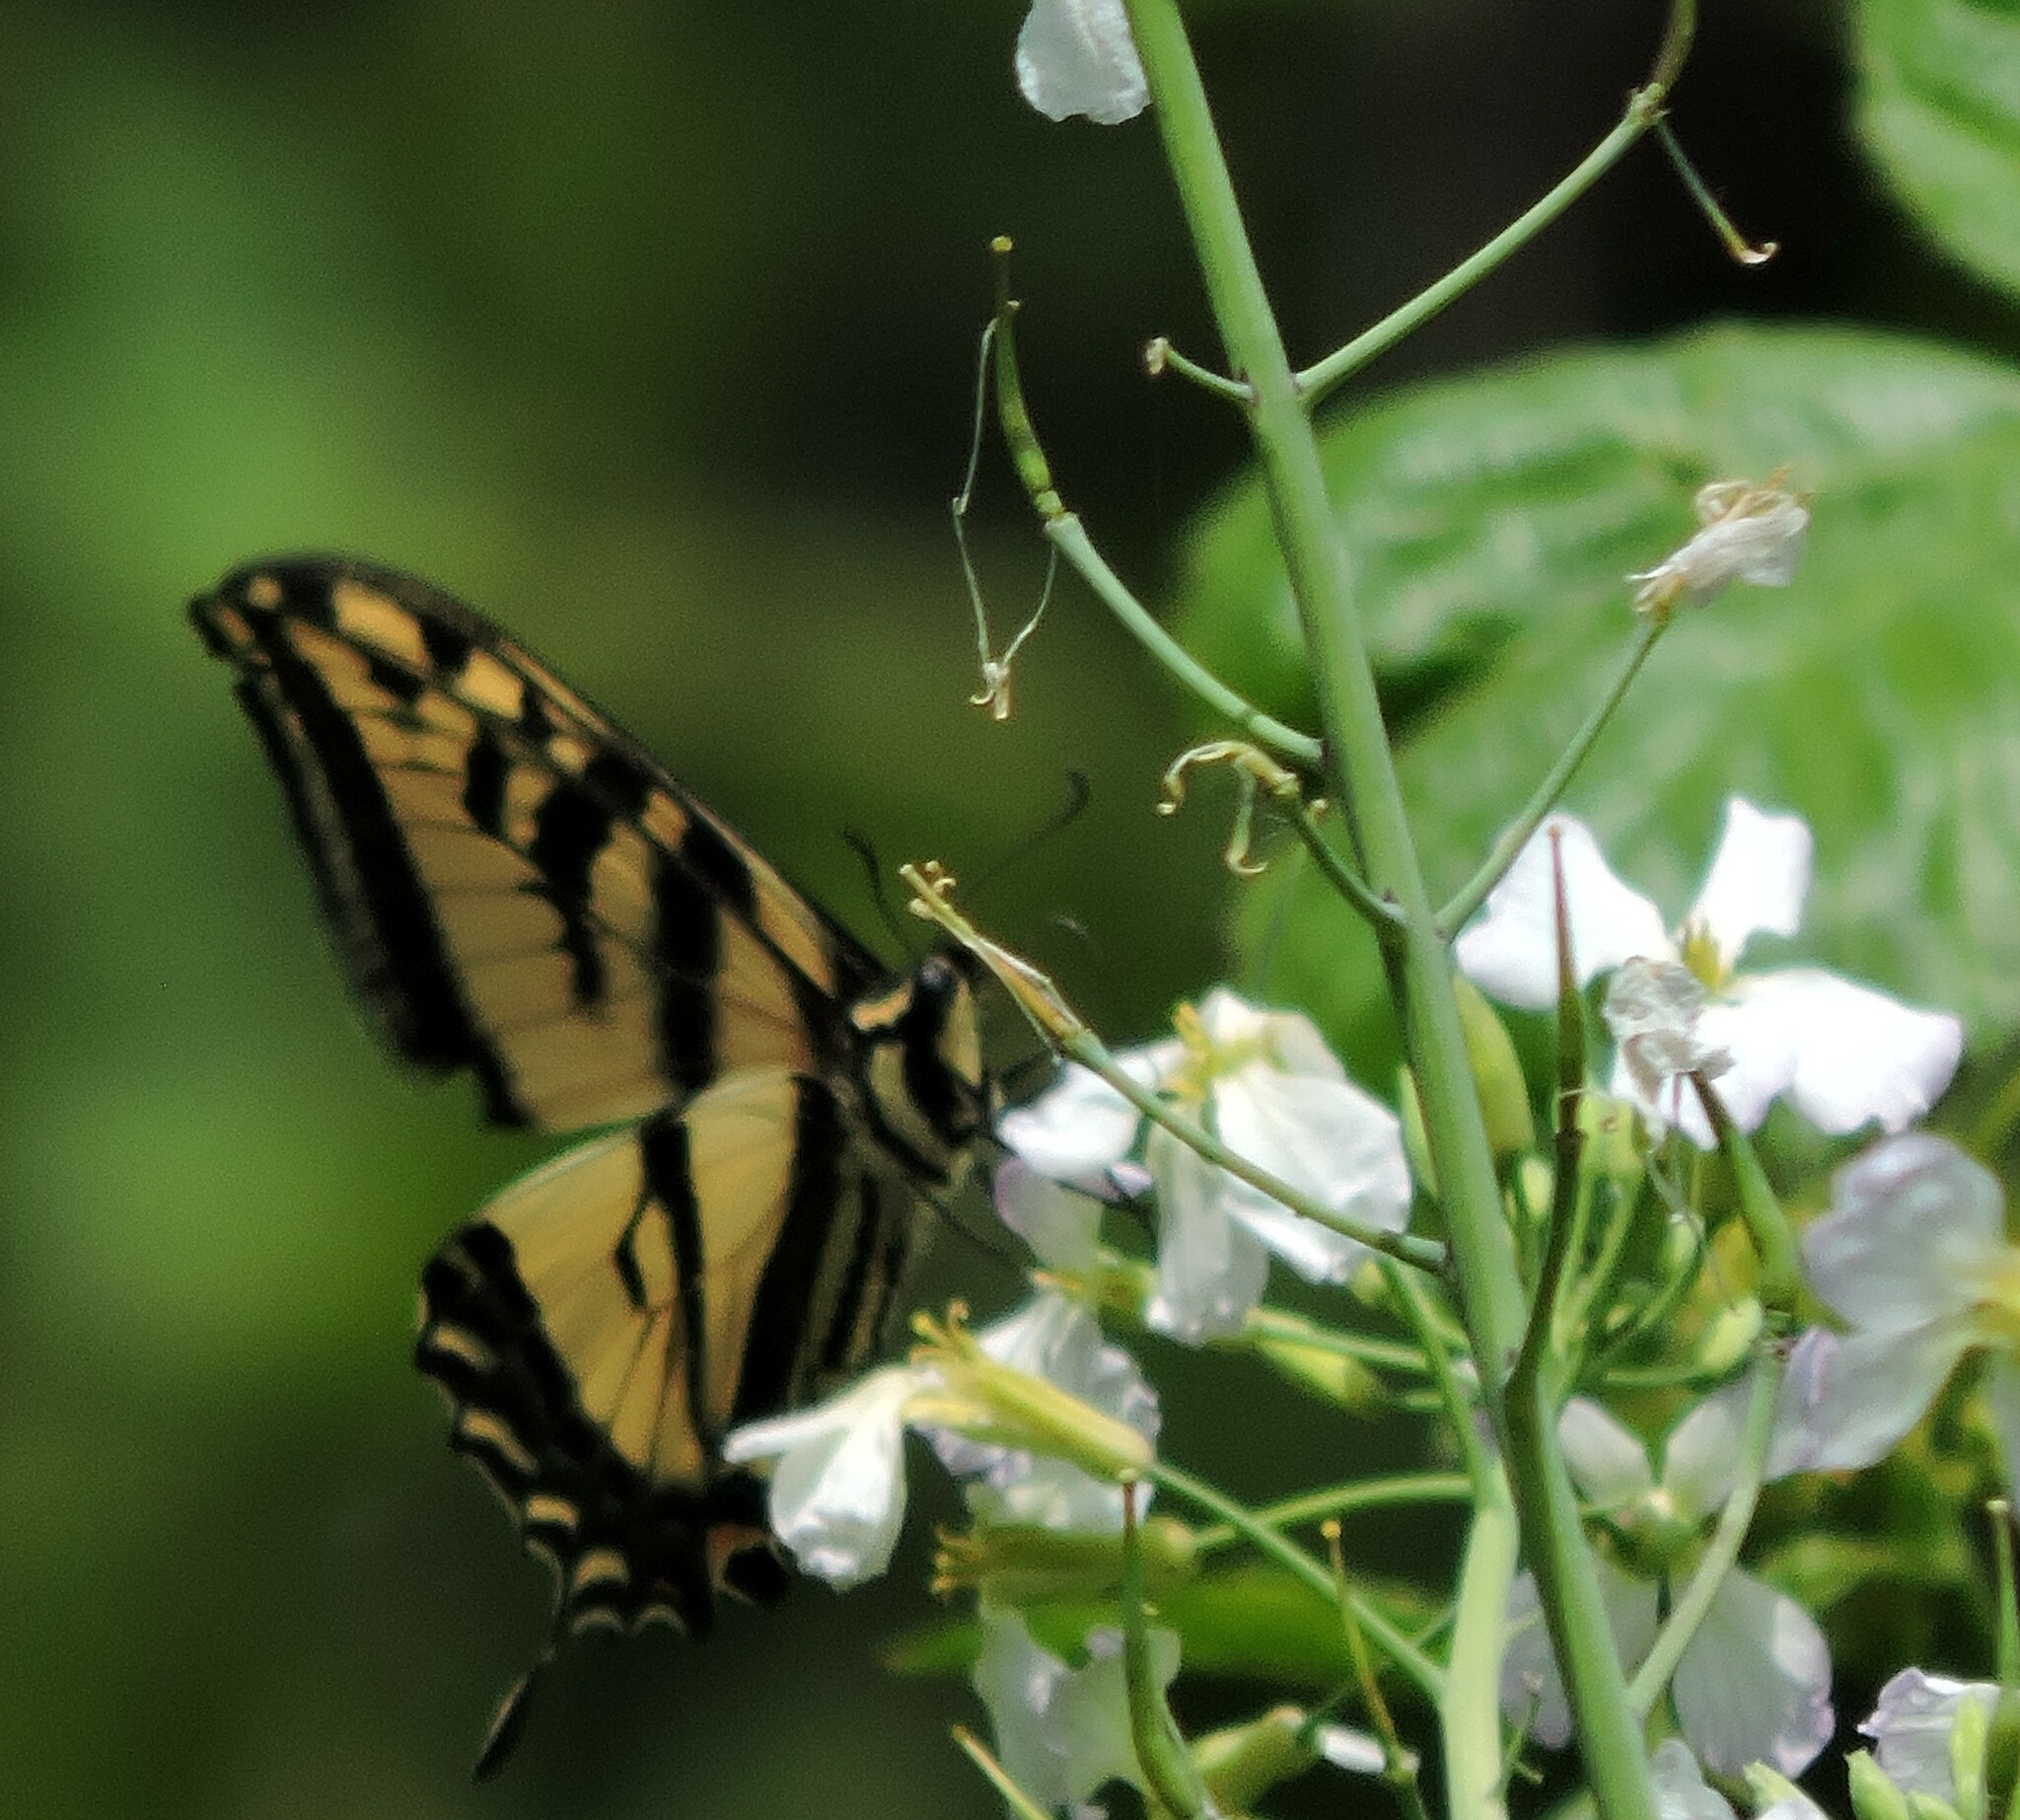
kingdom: Animalia
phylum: Arthropoda
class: Insecta
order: Lepidoptera
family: Papilionidae
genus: Papilio
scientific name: Papilio rutulus
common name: Western tiger swallowtail
